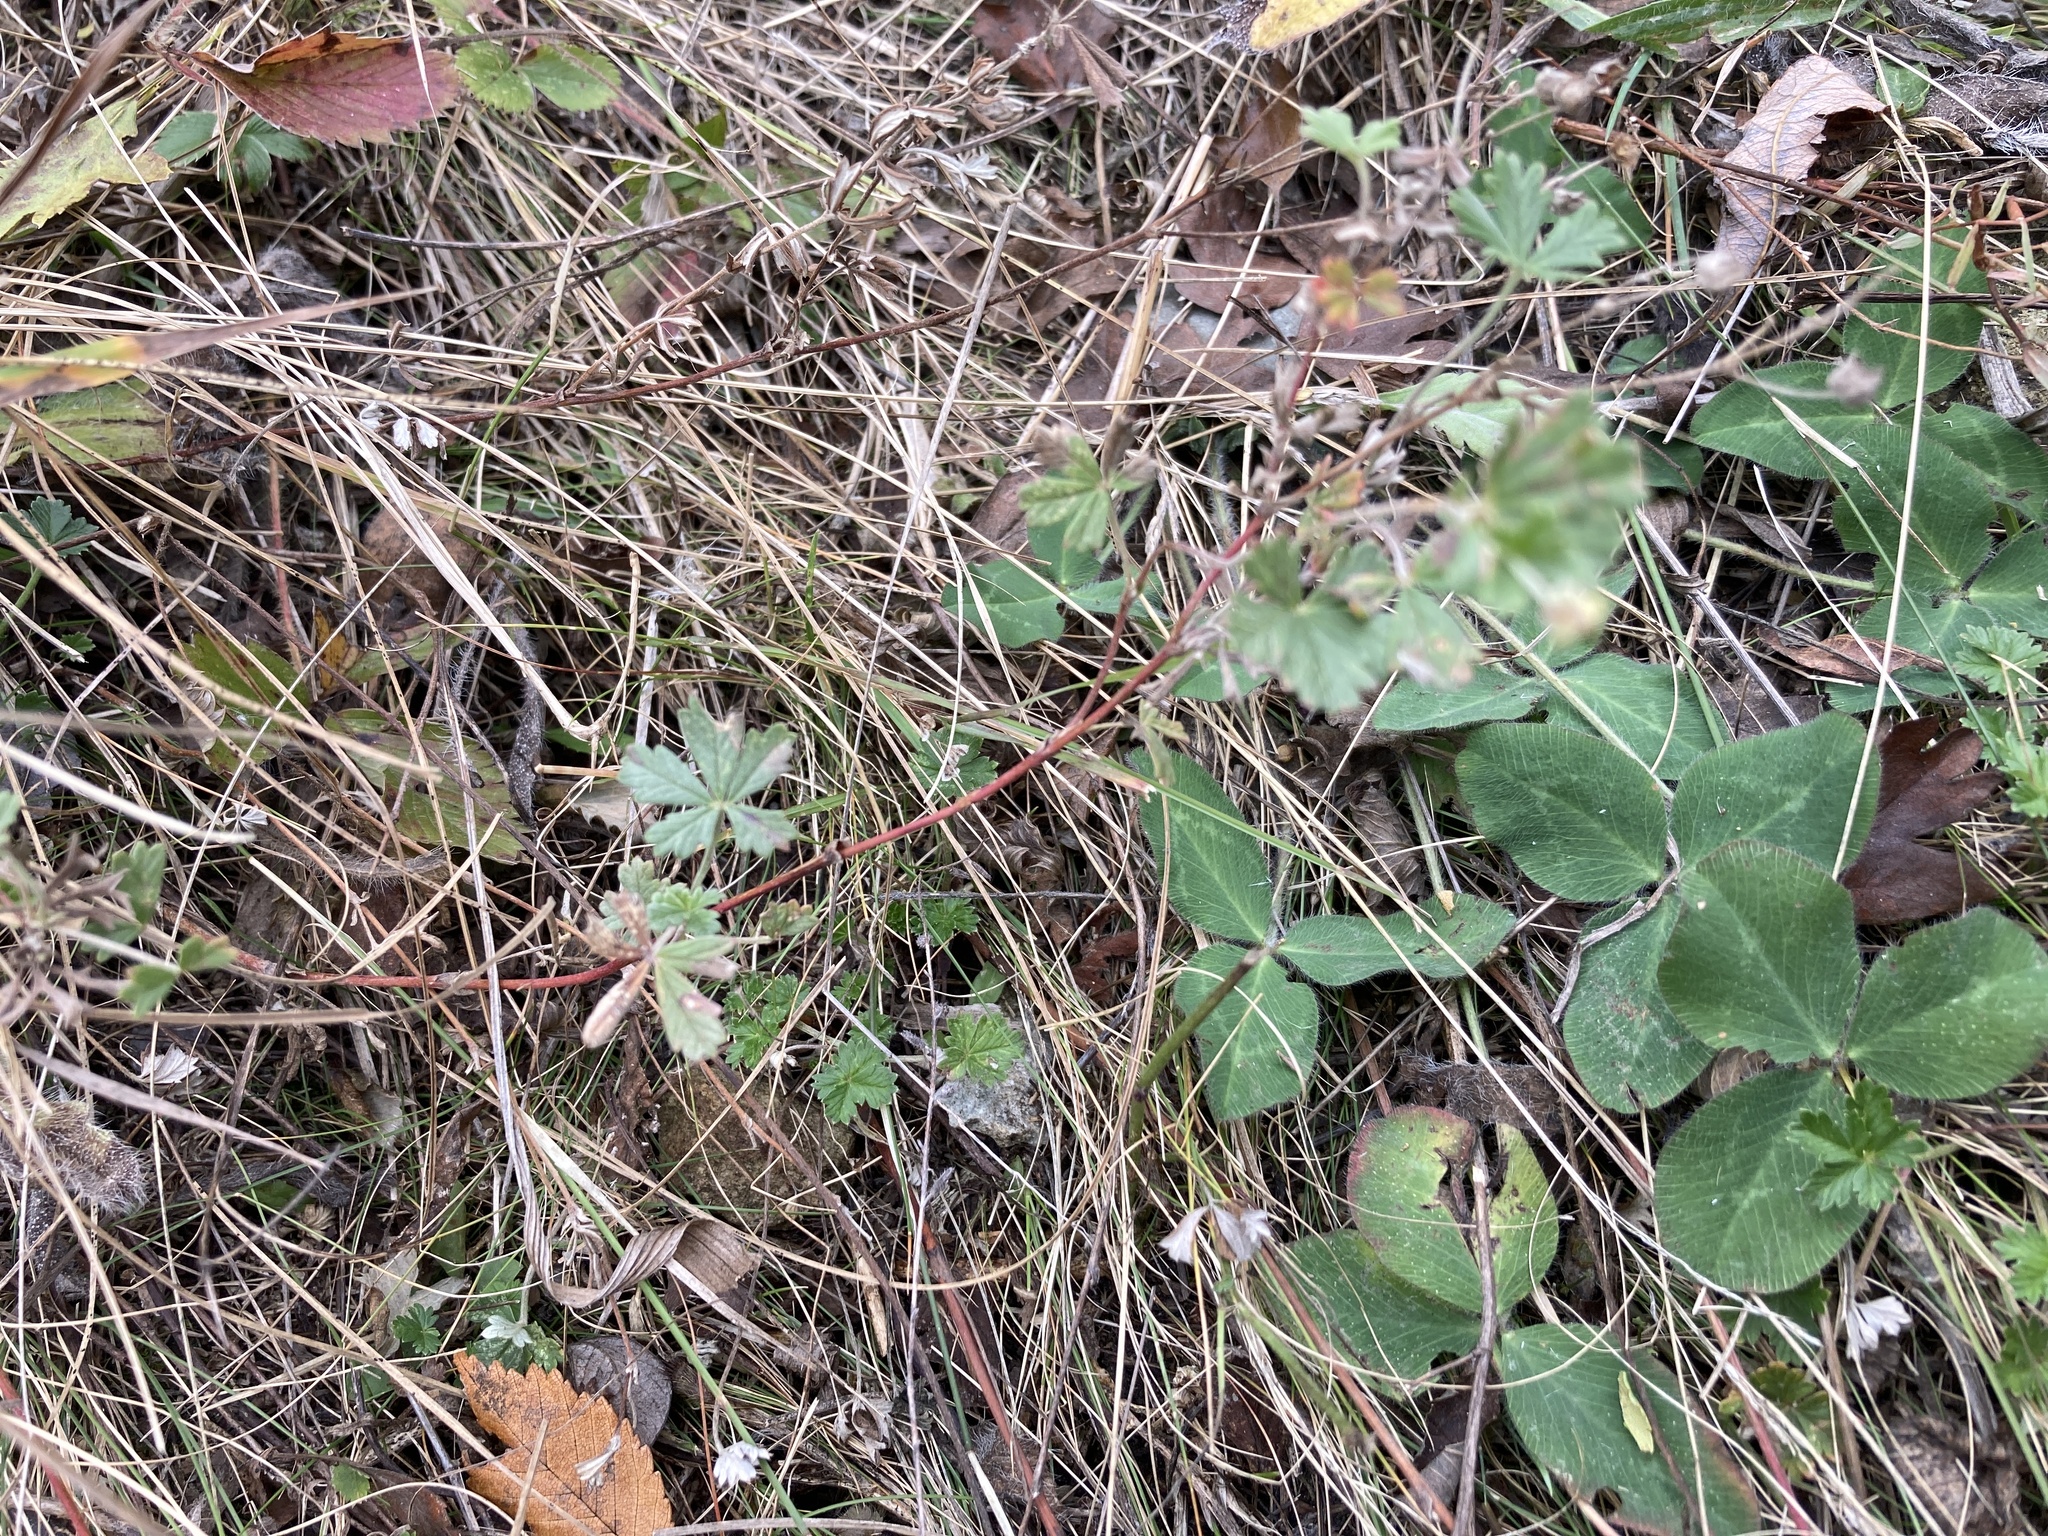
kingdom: Plantae
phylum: Tracheophyta
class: Magnoliopsida
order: Rosales
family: Rosaceae
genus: Potentilla
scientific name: Potentilla argentea
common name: Hoary cinquefoil
